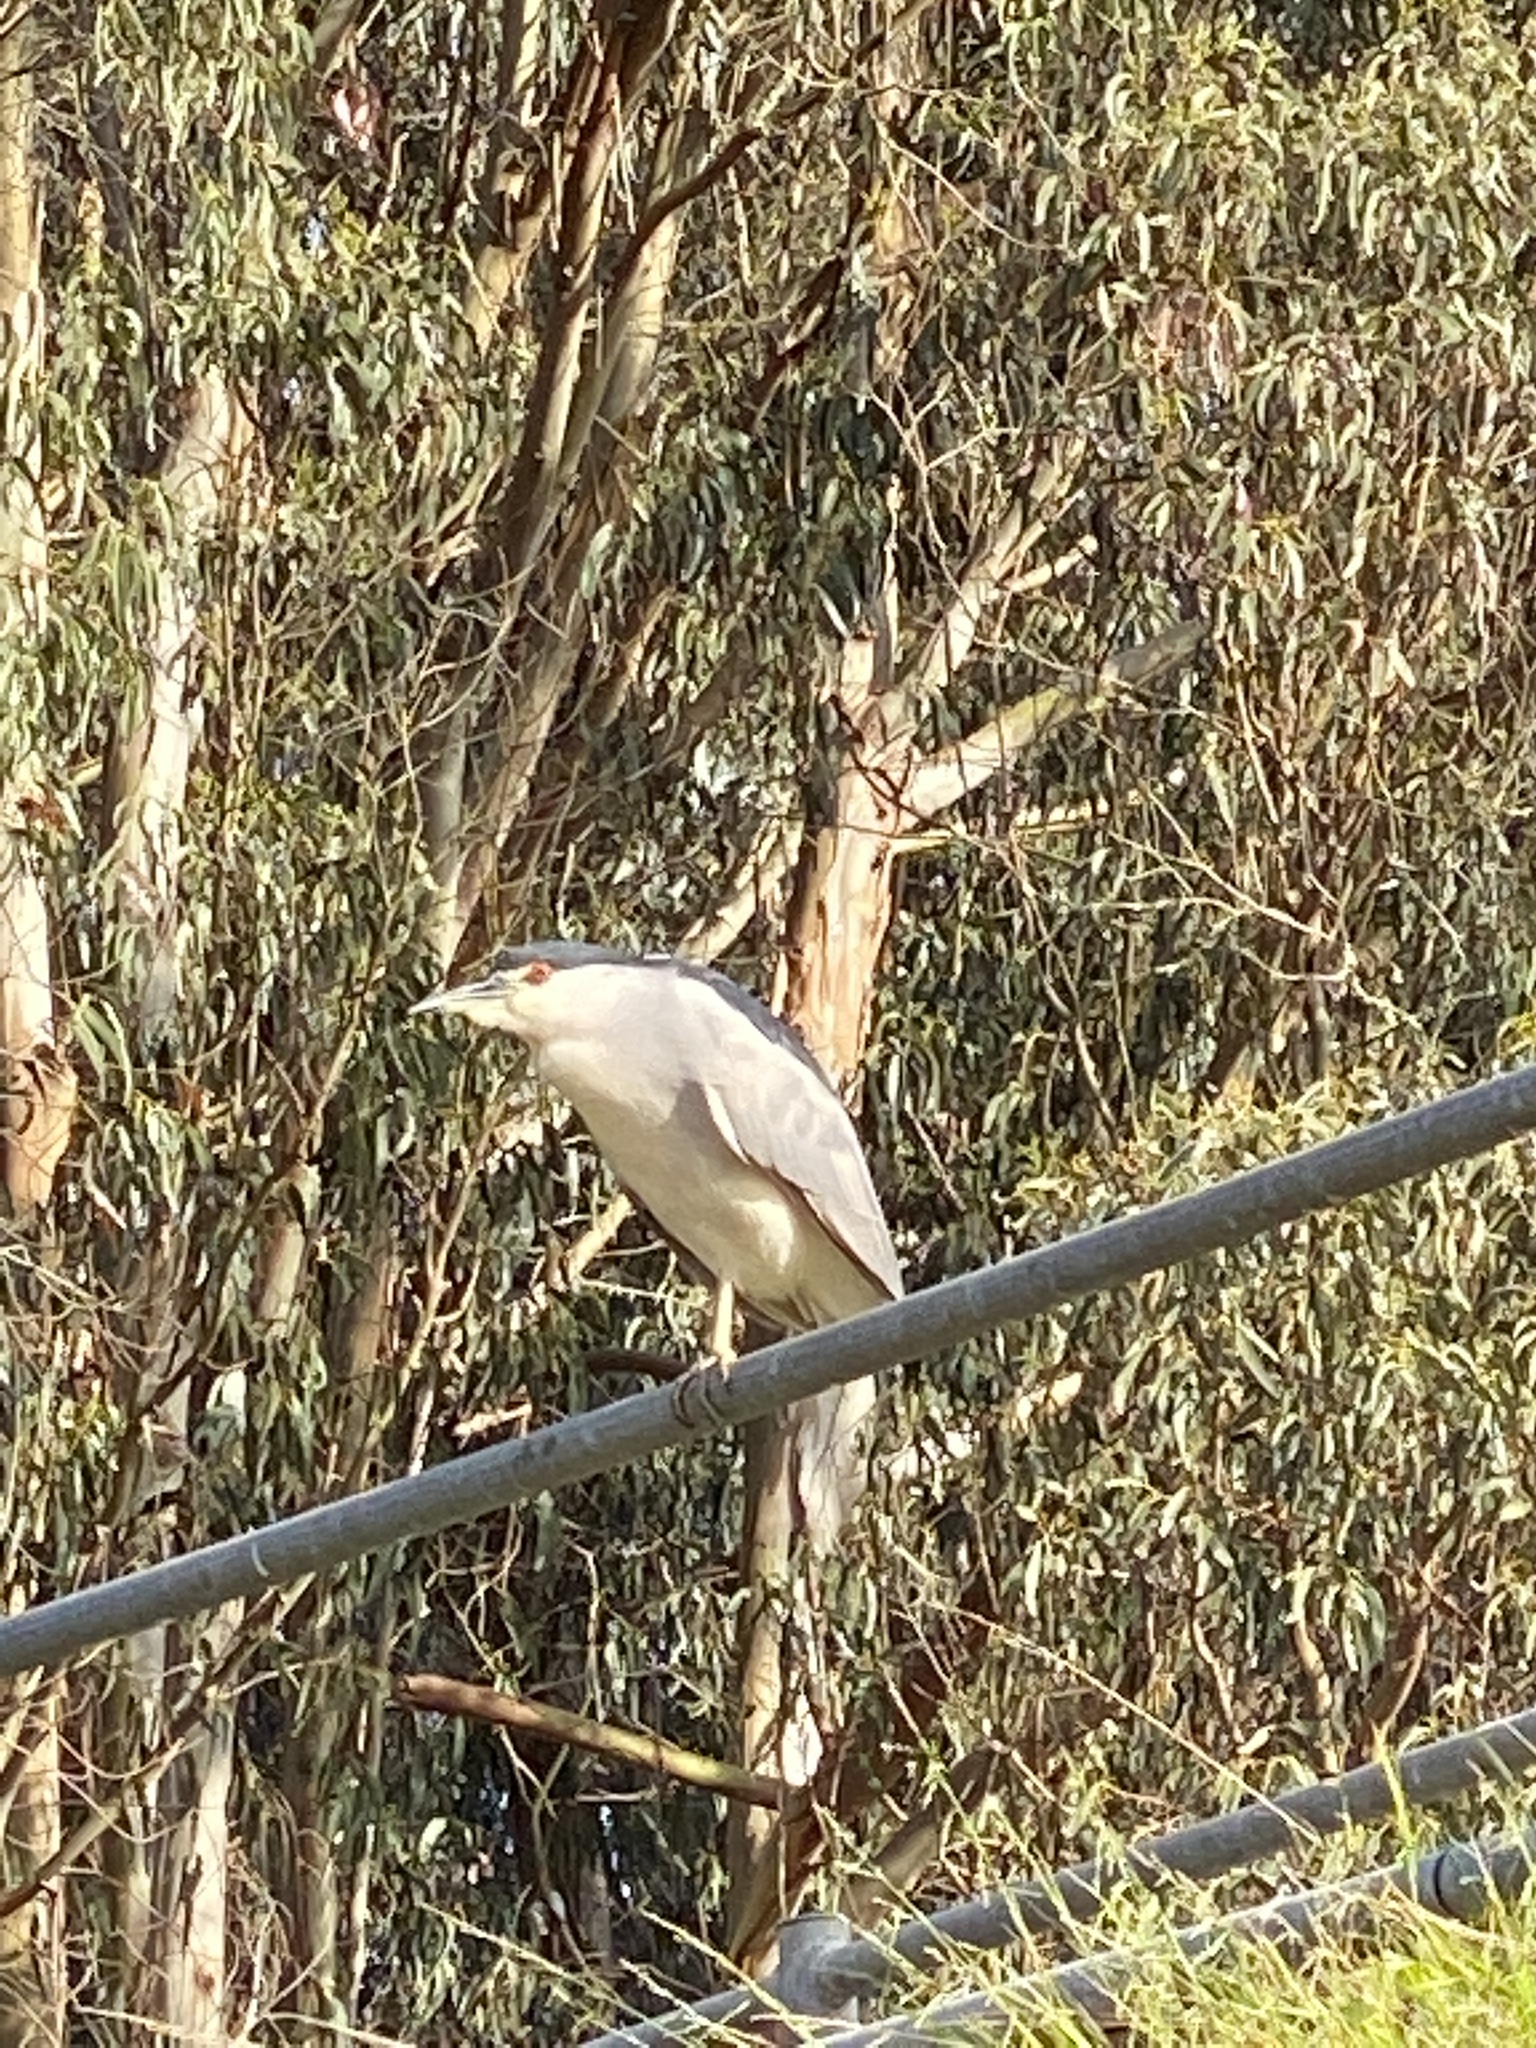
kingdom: Animalia
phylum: Chordata
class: Aves
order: Pelecaniformes
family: Ardeidae
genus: Nycticorax
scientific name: Nycticorax nycticorax
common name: Black-crowned night heron
